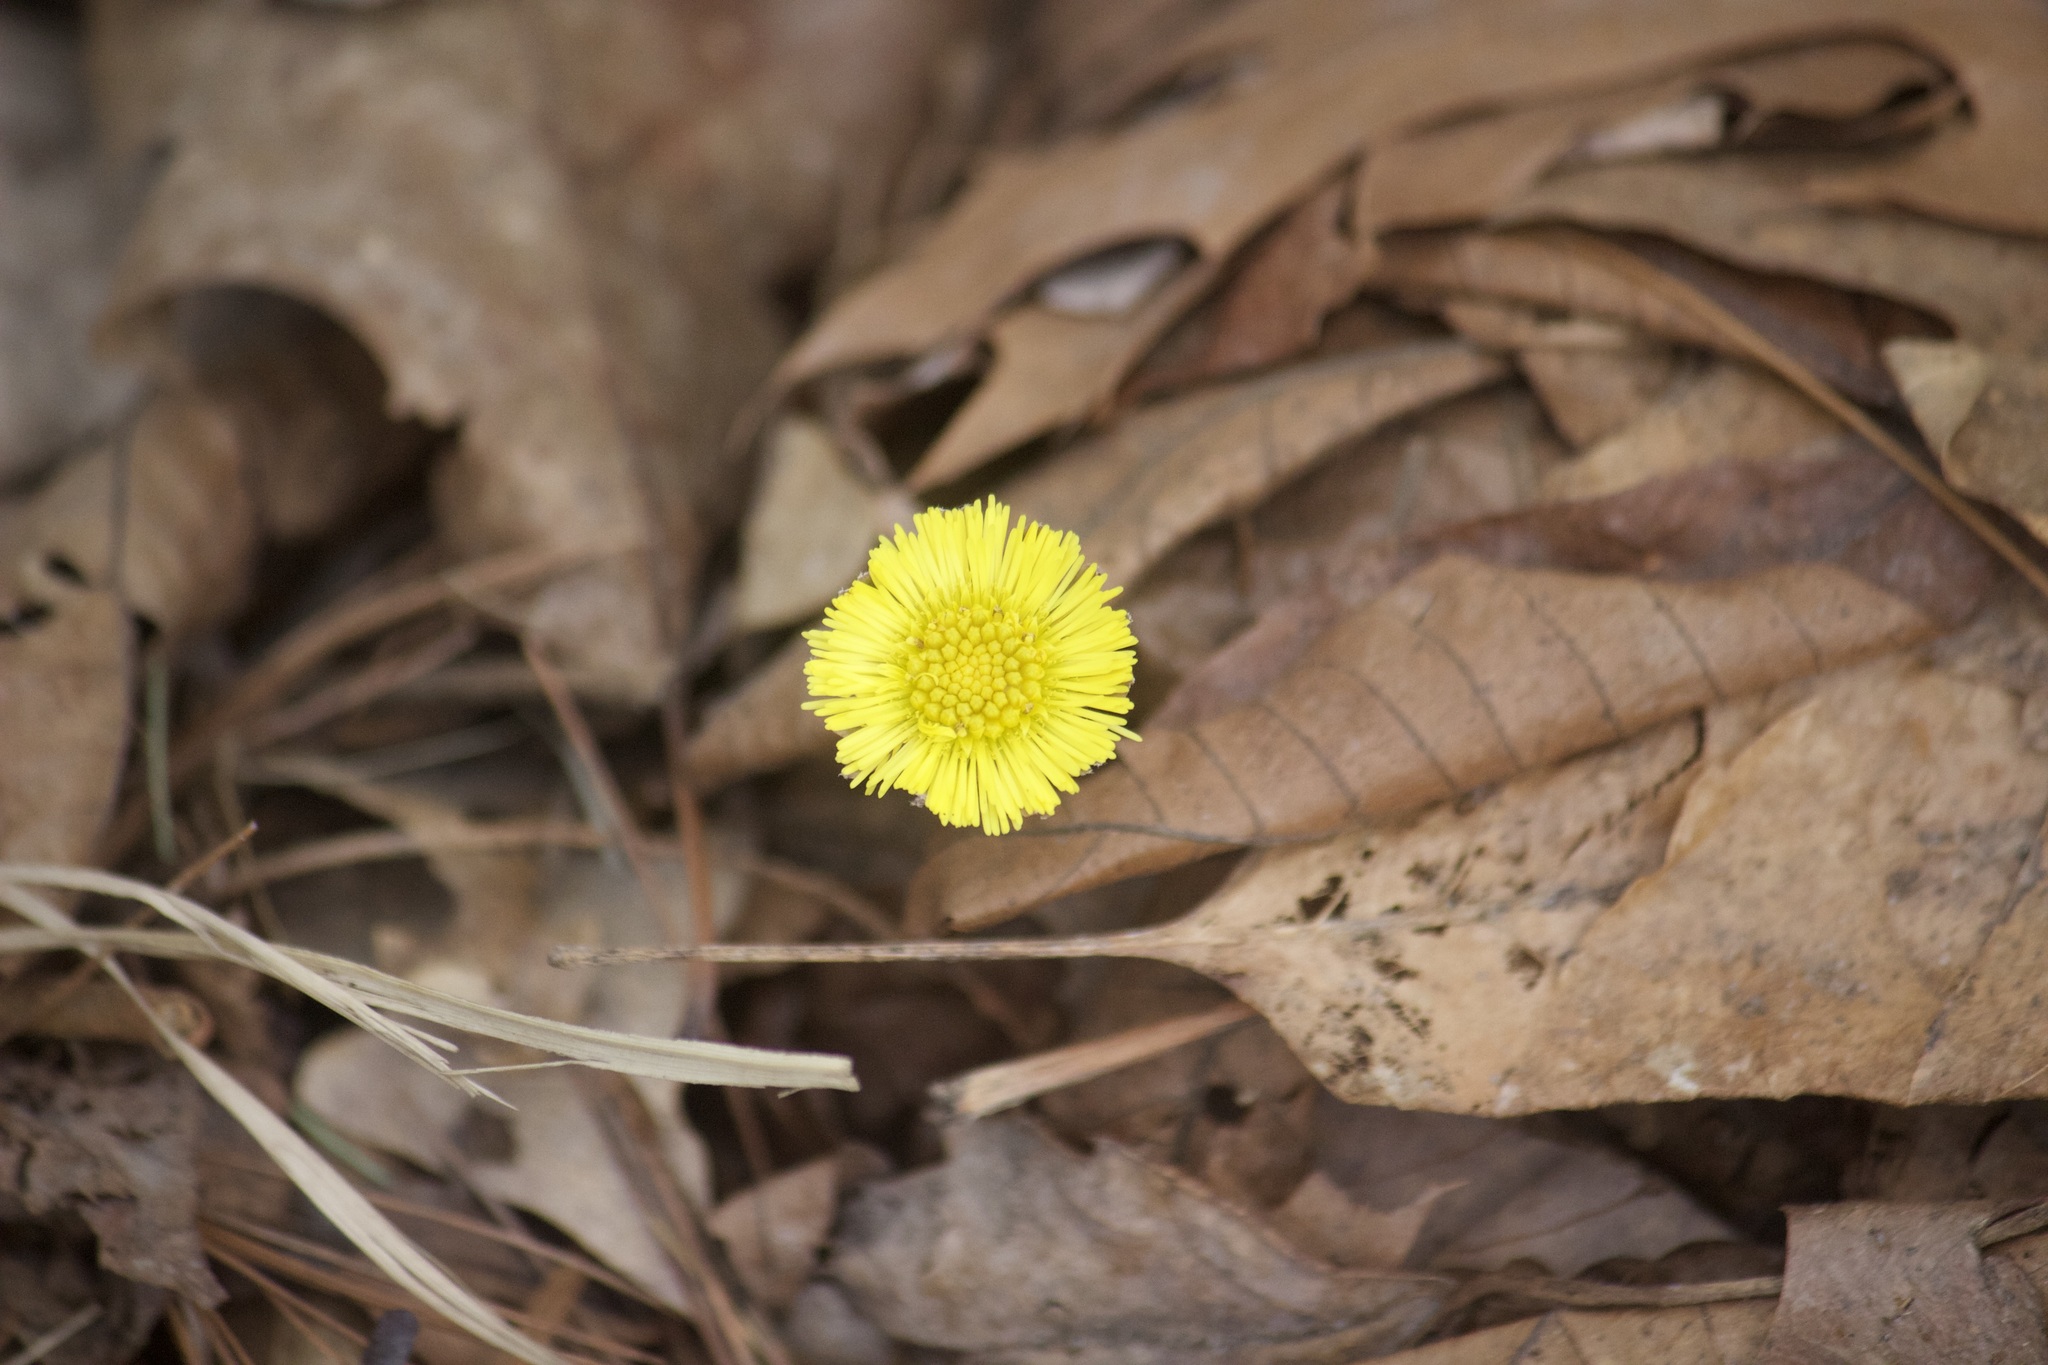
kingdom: Plantae
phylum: Tracheophyta
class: Magnoliopsida
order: Asterales
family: Asteraceae
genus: Tussilago
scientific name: Tussilago farfara
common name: Coltsfoot
